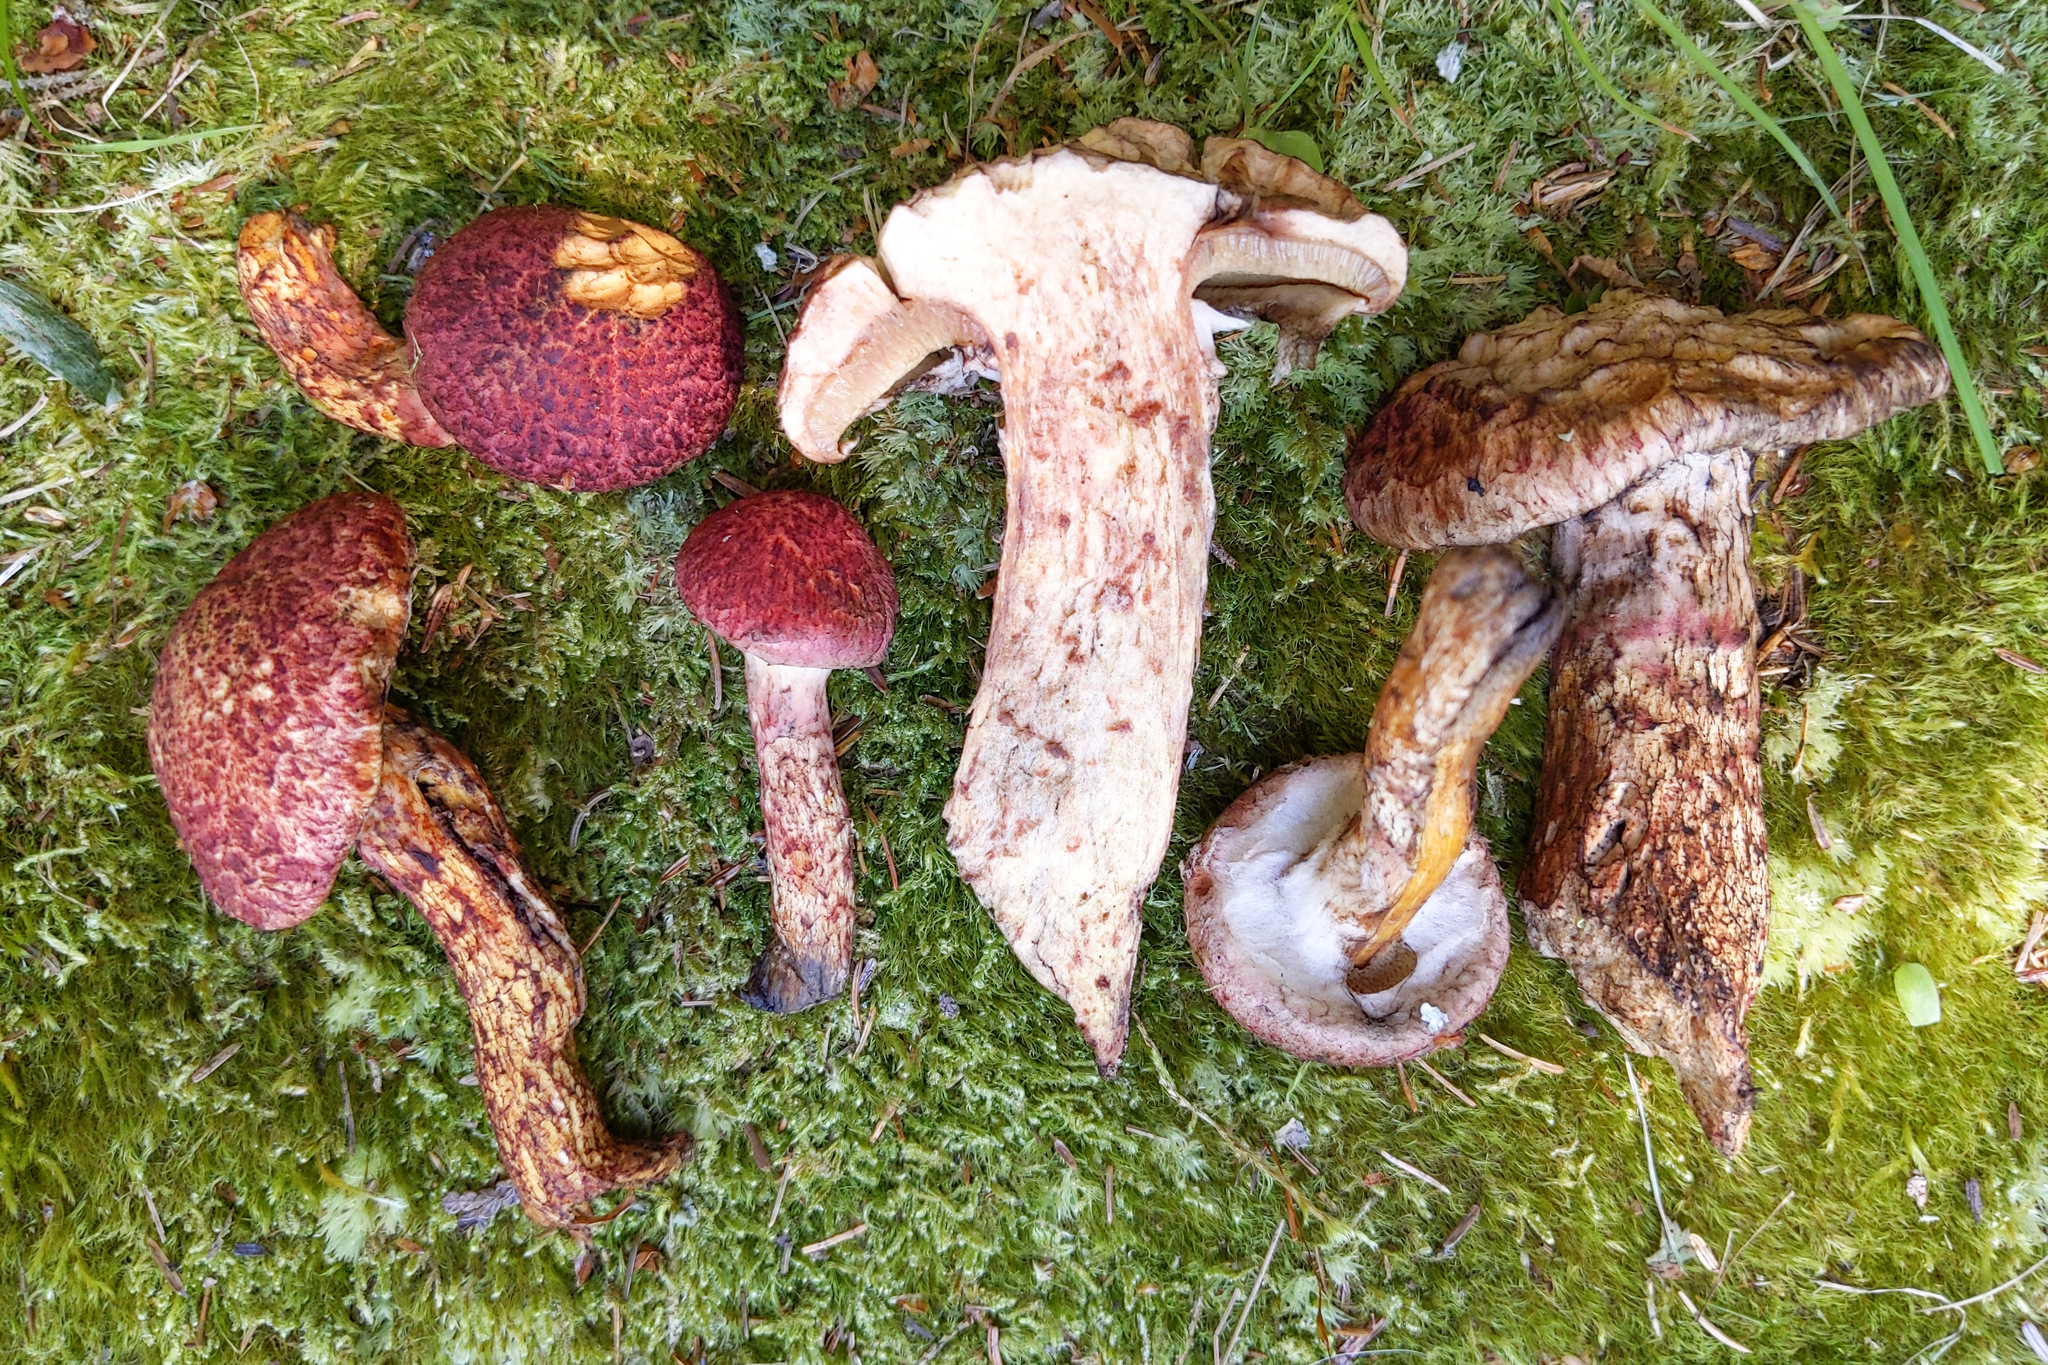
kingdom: Fungi
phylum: Basidiomycota
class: Agaricomycetes
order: Boletales
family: Suillaceae
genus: Suillus
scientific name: Suillus spraguei
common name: Painted suillus
